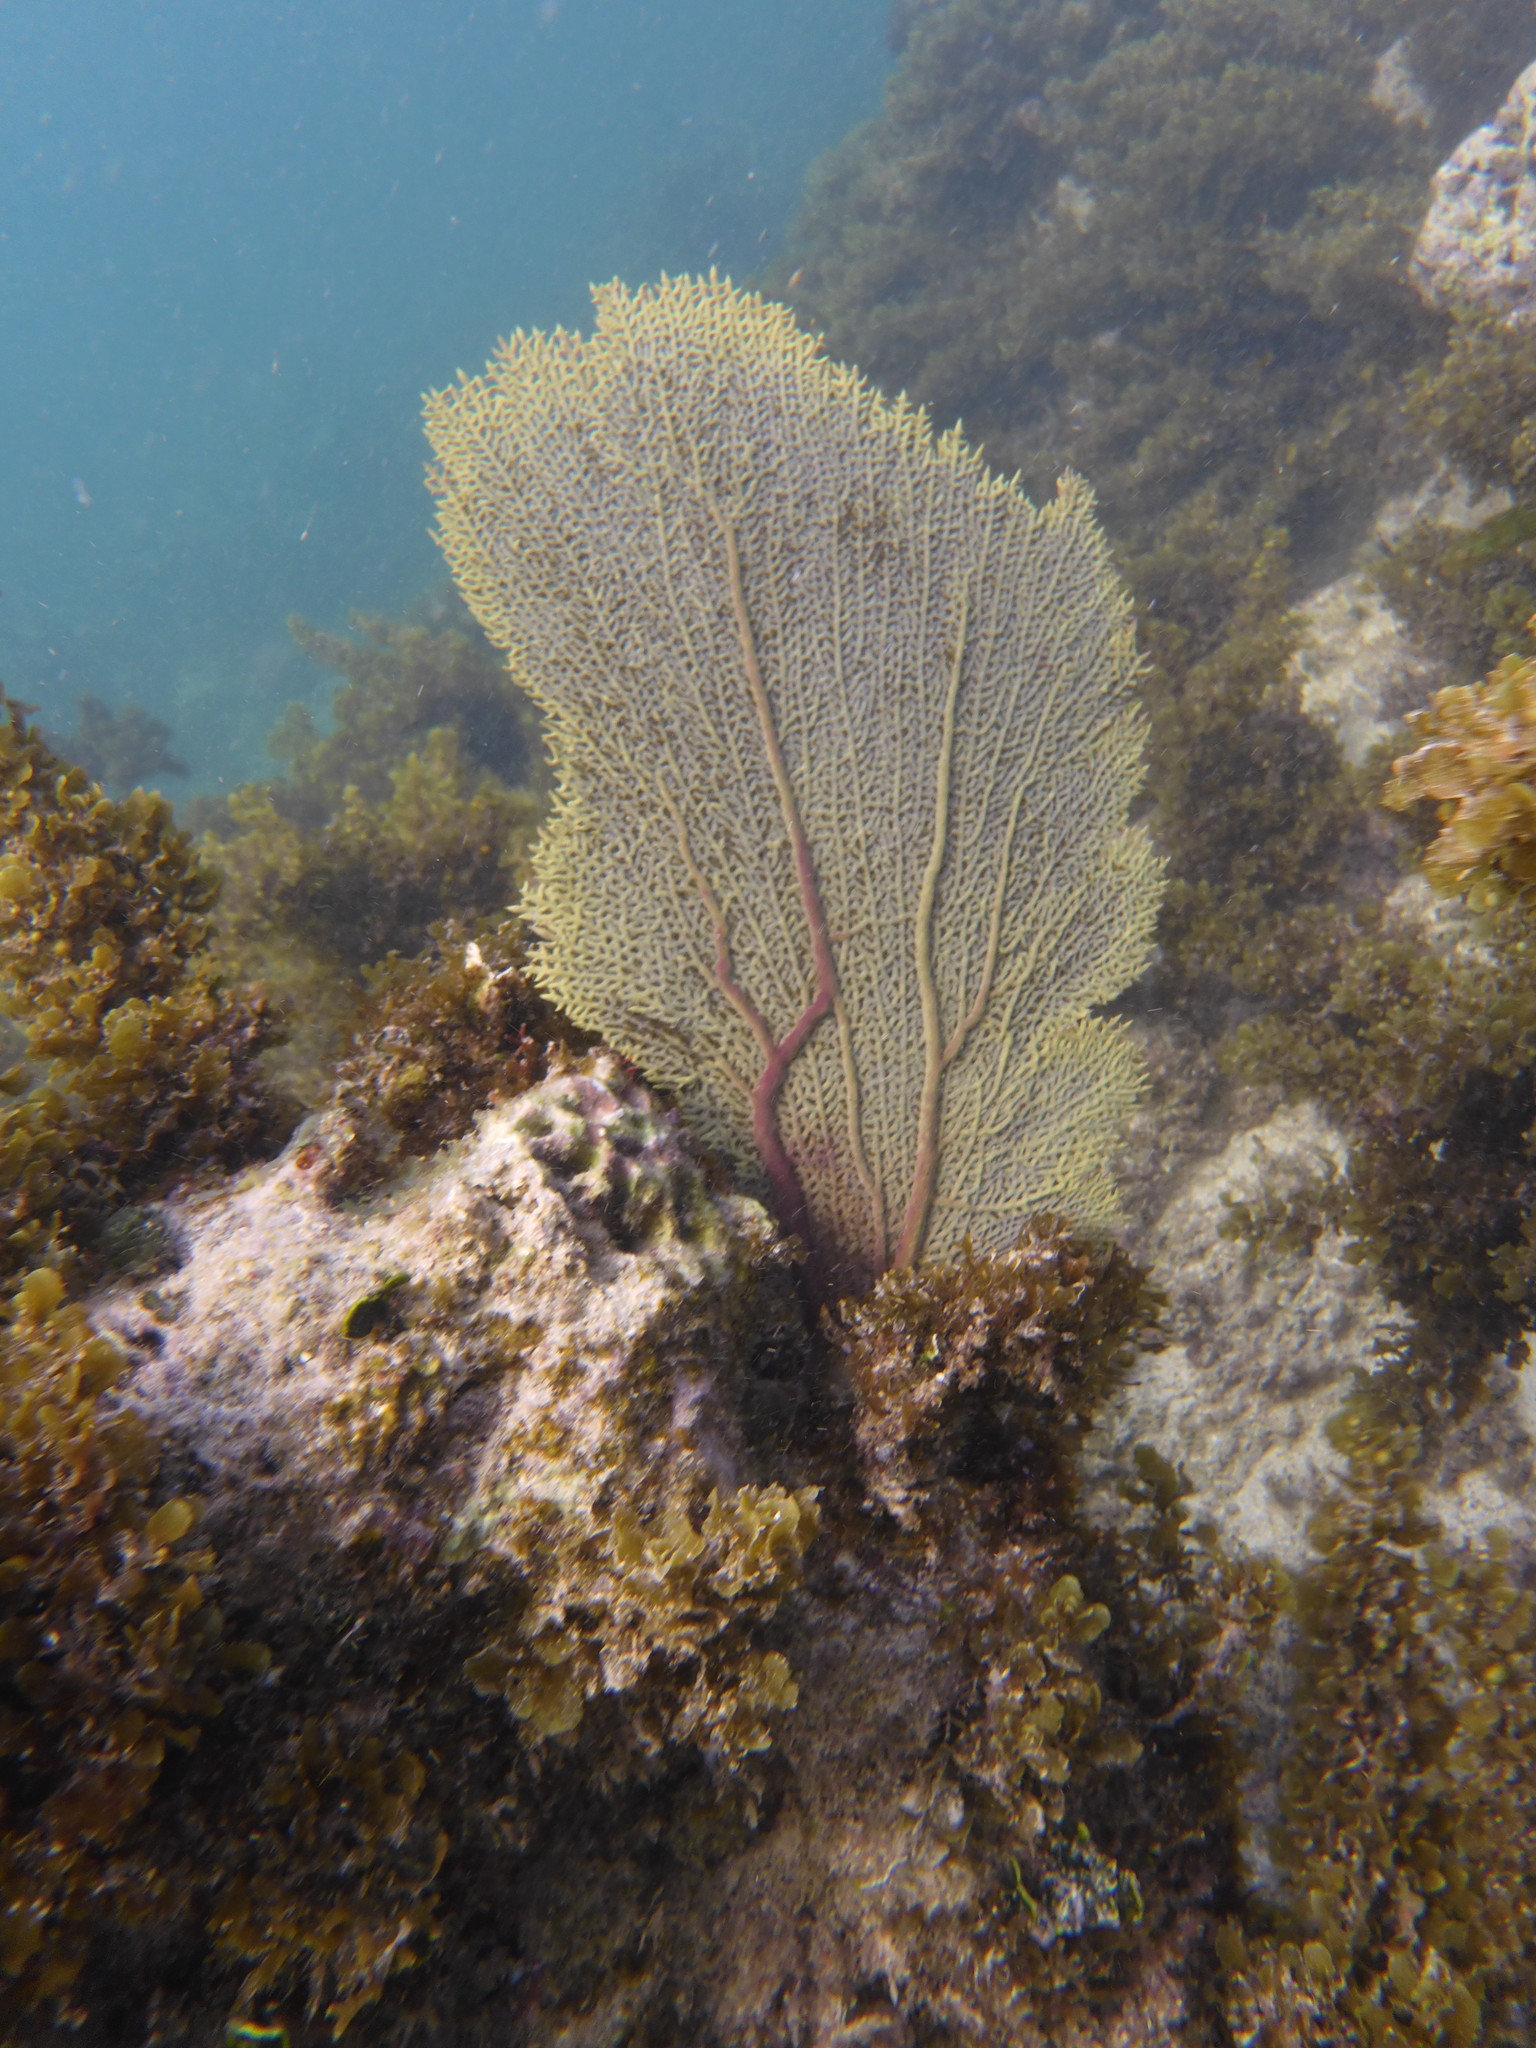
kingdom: Animalia
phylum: Cnidaria
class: Anthozoa
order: Malacalcyonacea
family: Gorgoniidae
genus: Gorgonia
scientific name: Gorgonia ventalina
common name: Common sea fan
